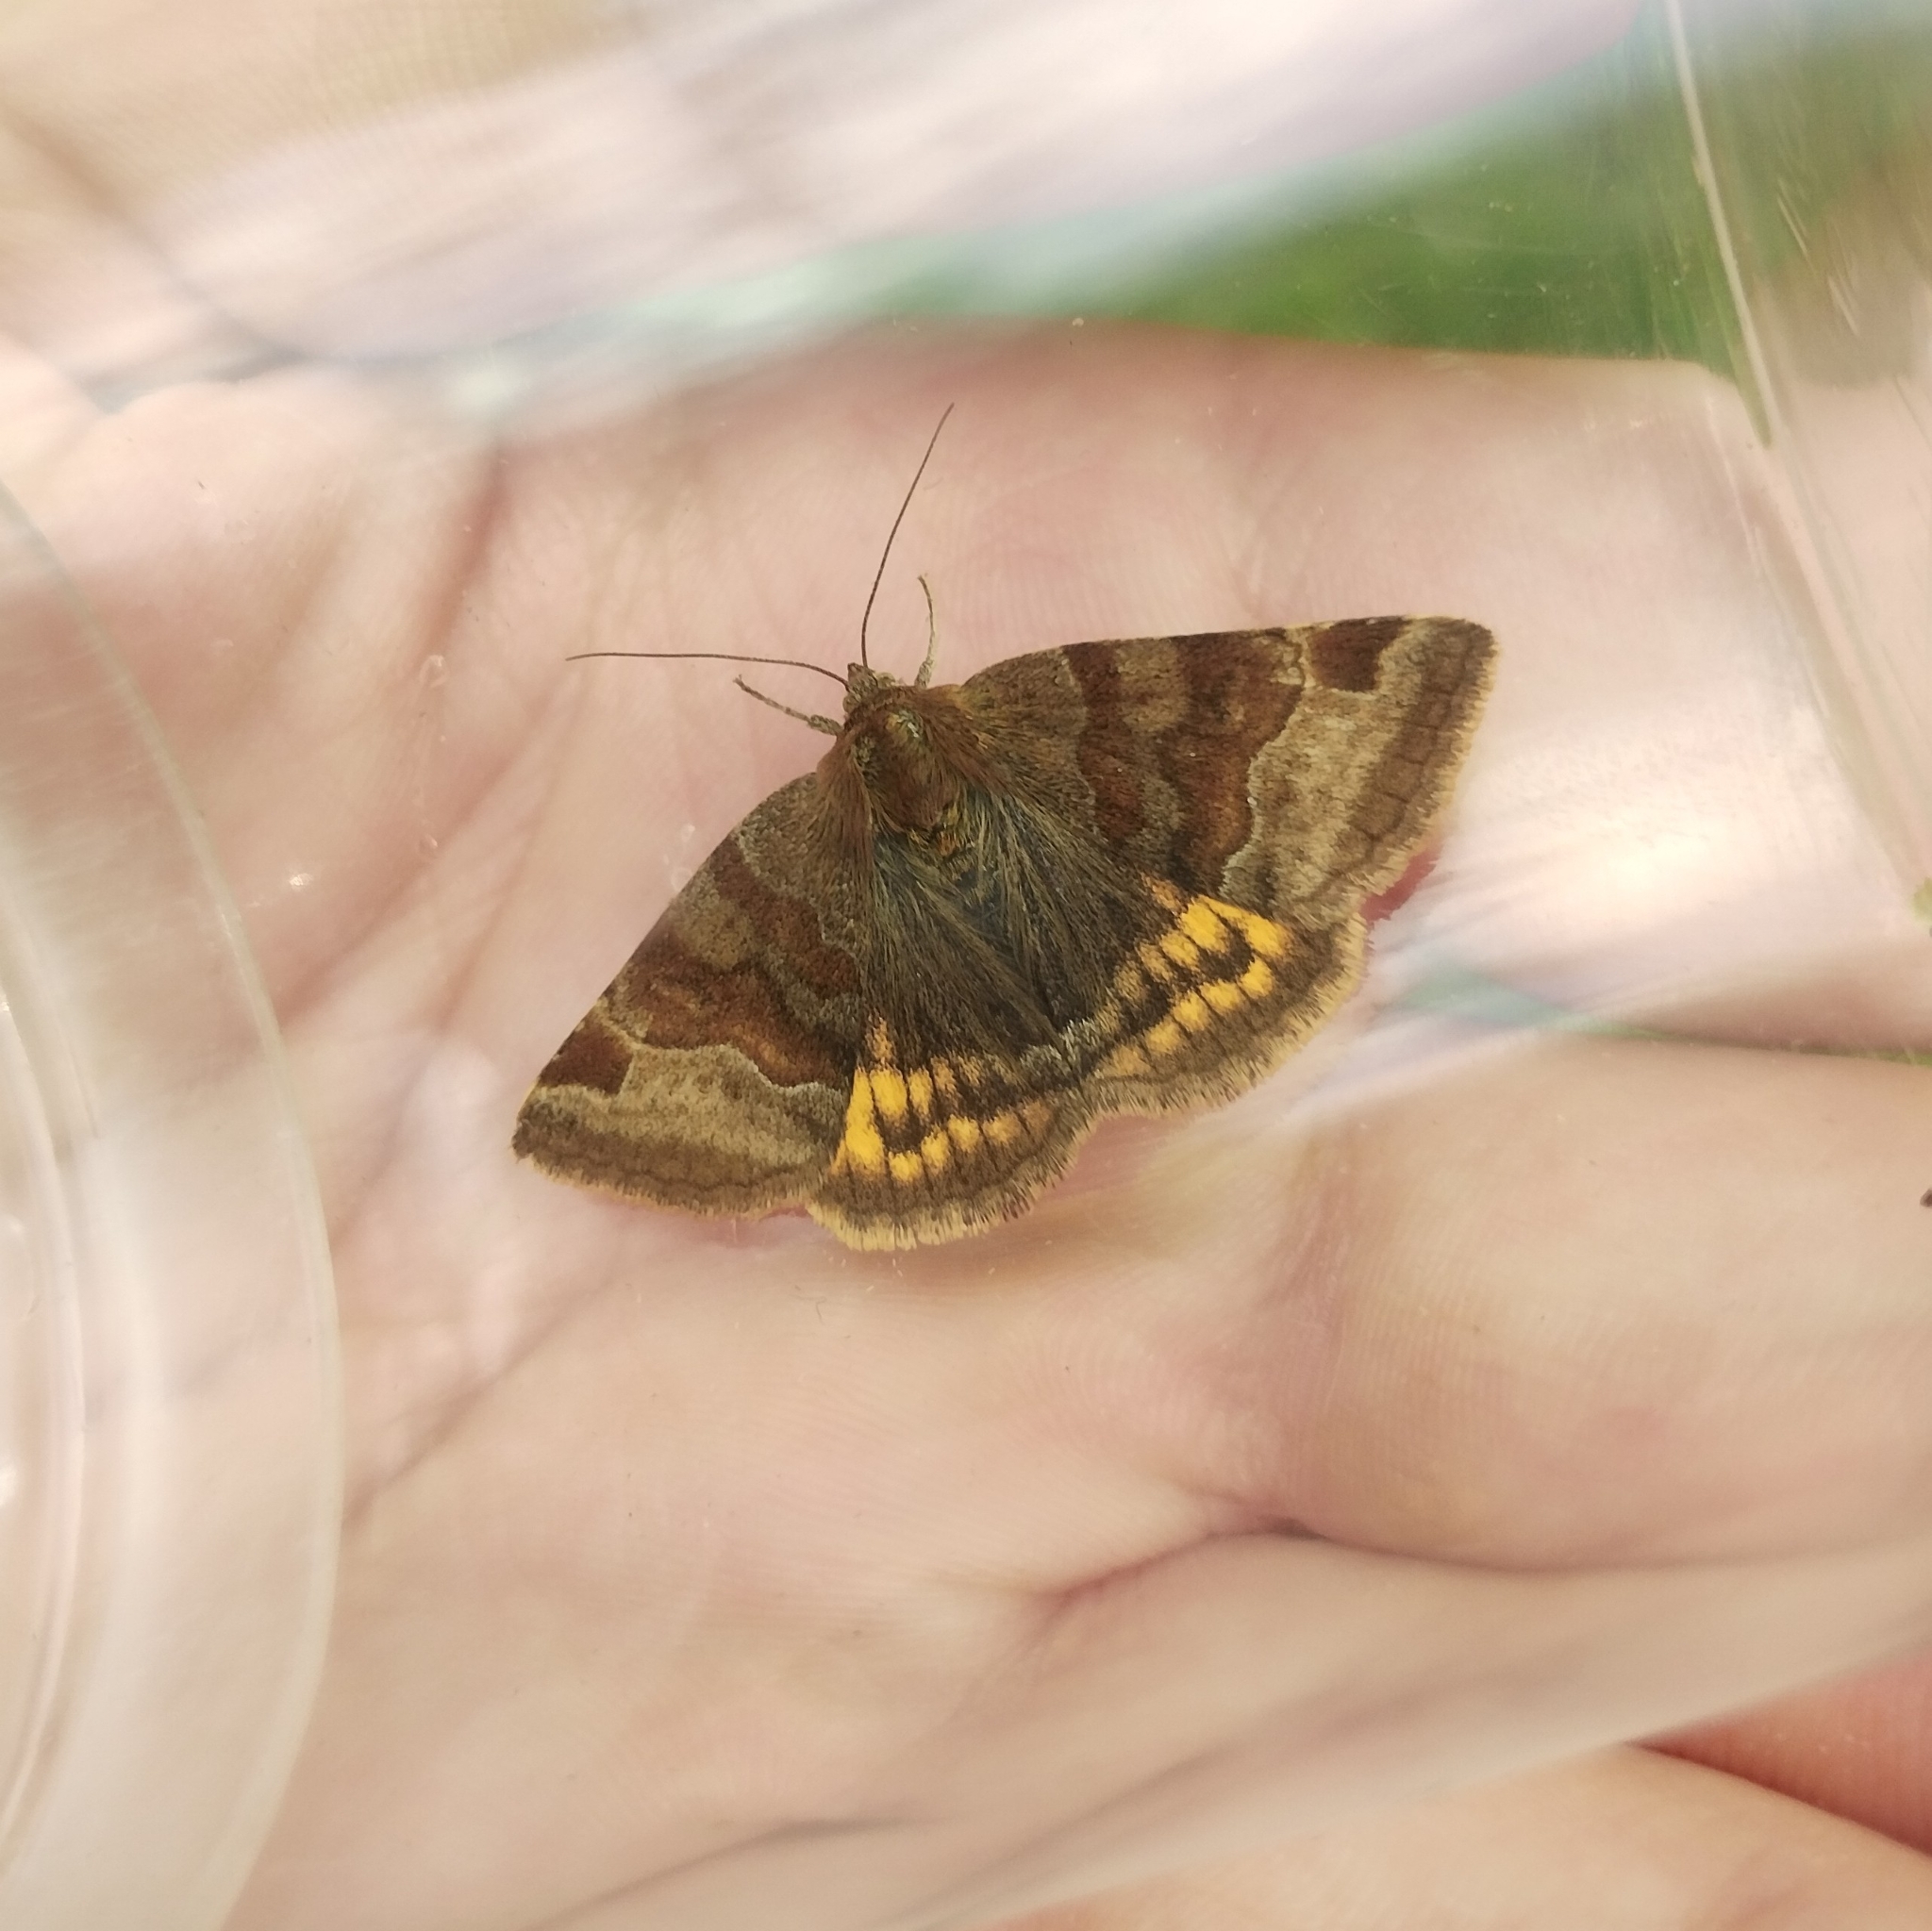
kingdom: Animalia
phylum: Arthropoda
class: Insecta
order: Lepidoptera
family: Erebidae
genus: Euclidia
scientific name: Euclidia glyphica
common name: Burnet companion
